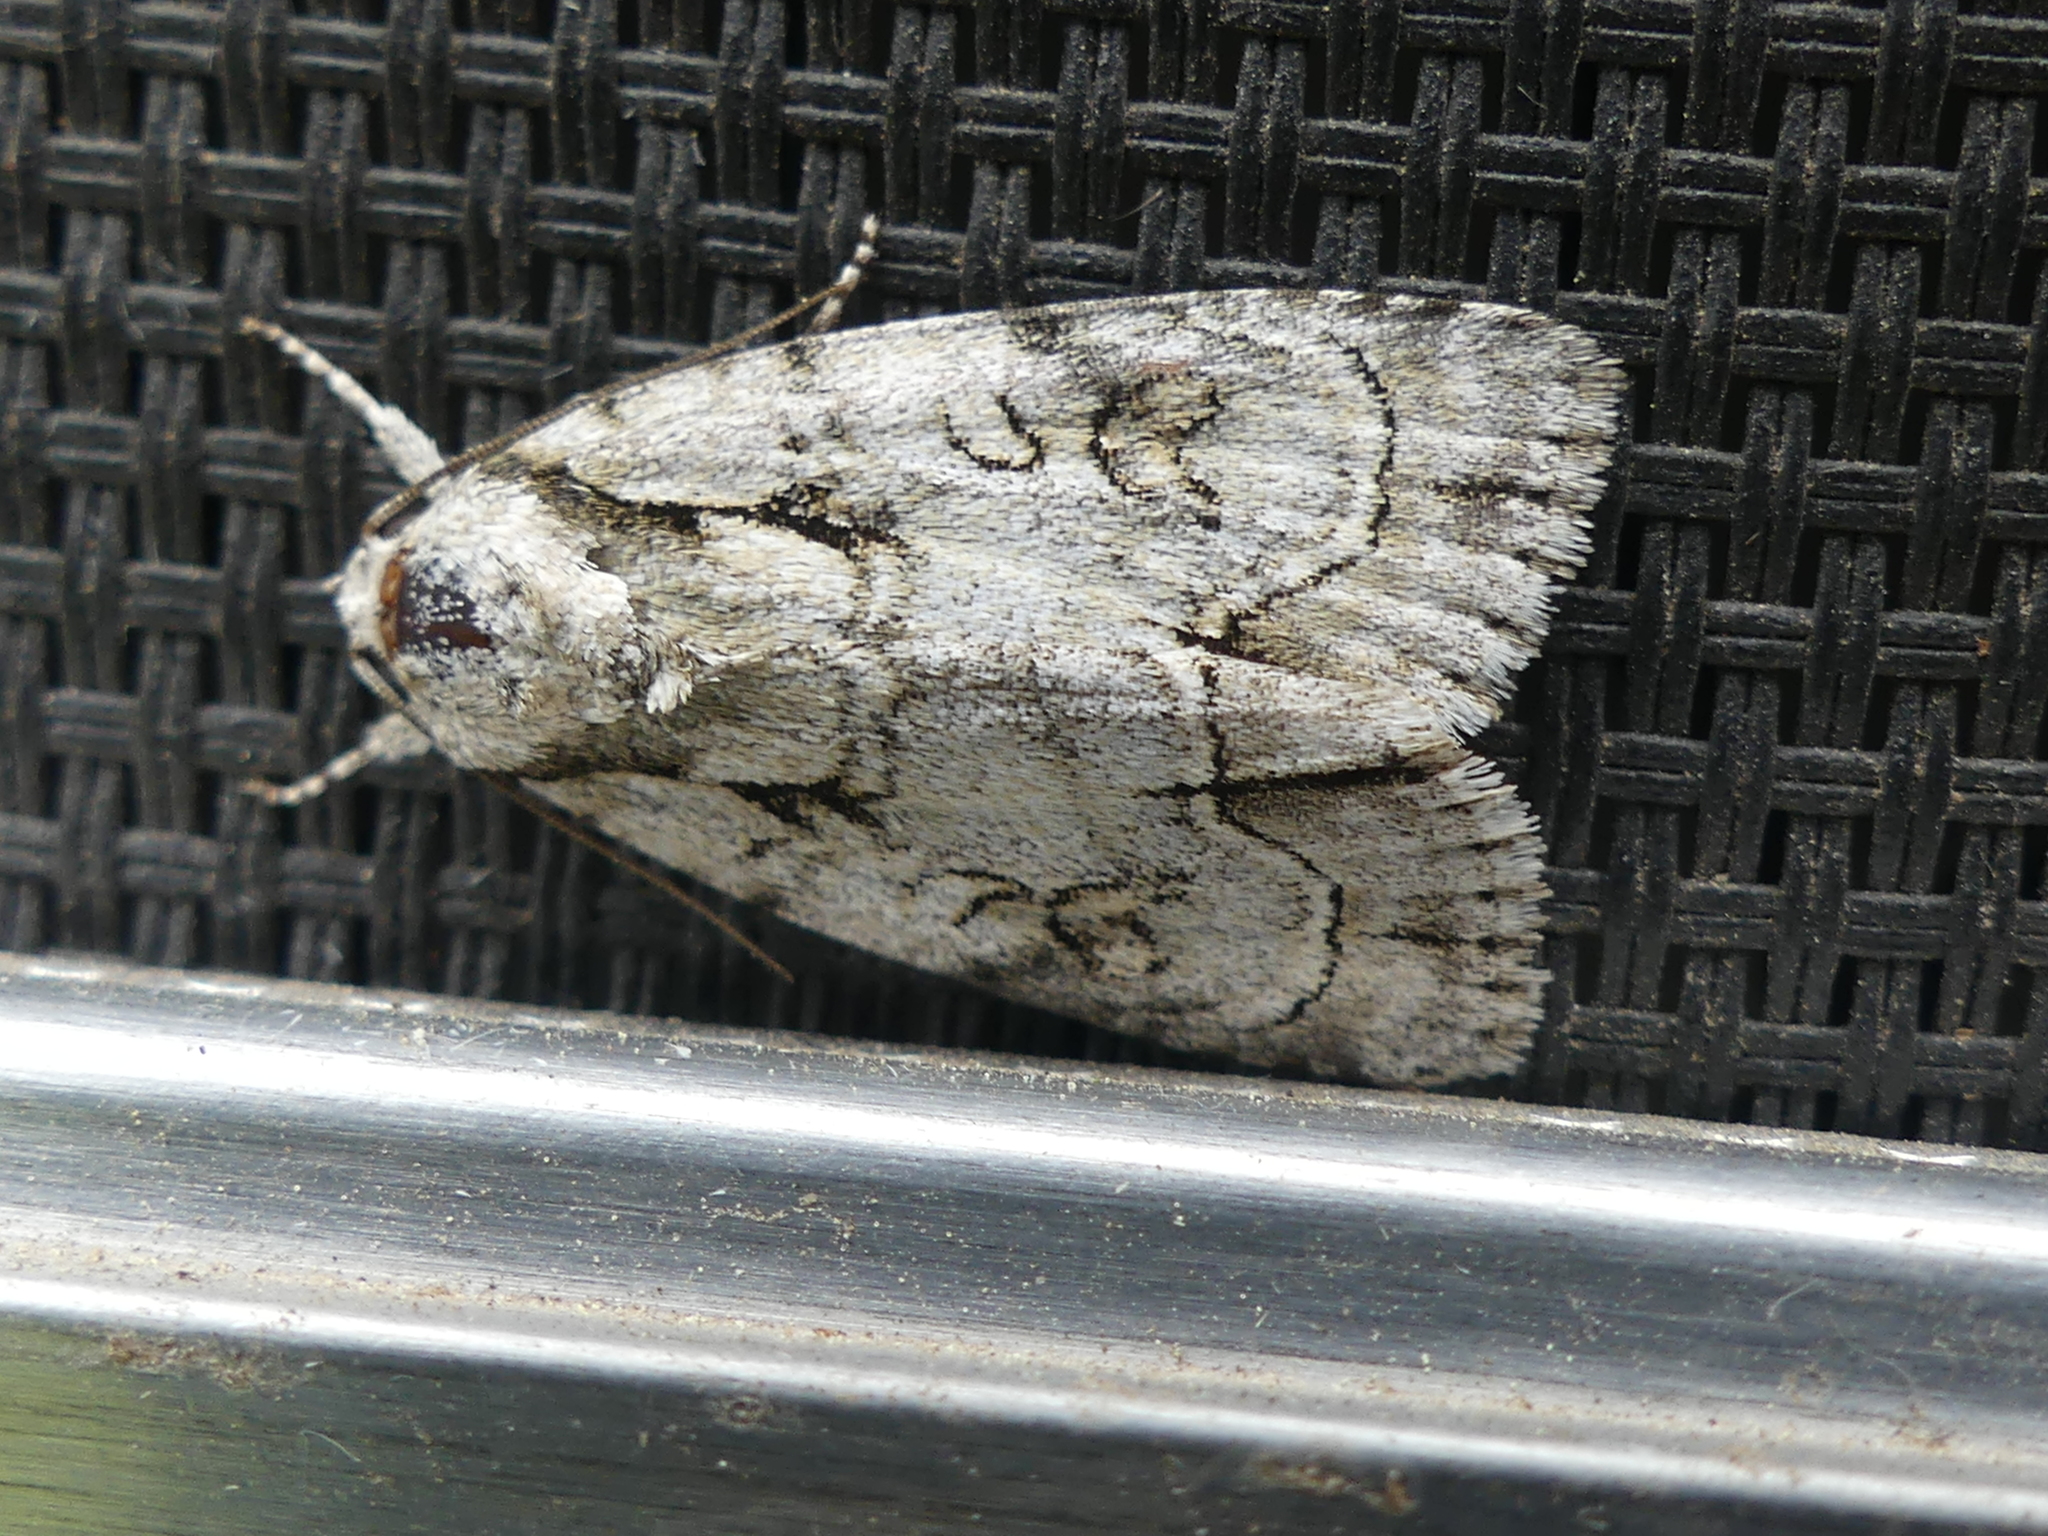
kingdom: Animalia
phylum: Arthropoda
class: Insecta
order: Lepidoptera
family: Noctuidae
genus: Acronicta
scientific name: Acronicta vinnula
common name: Delightful dagger
